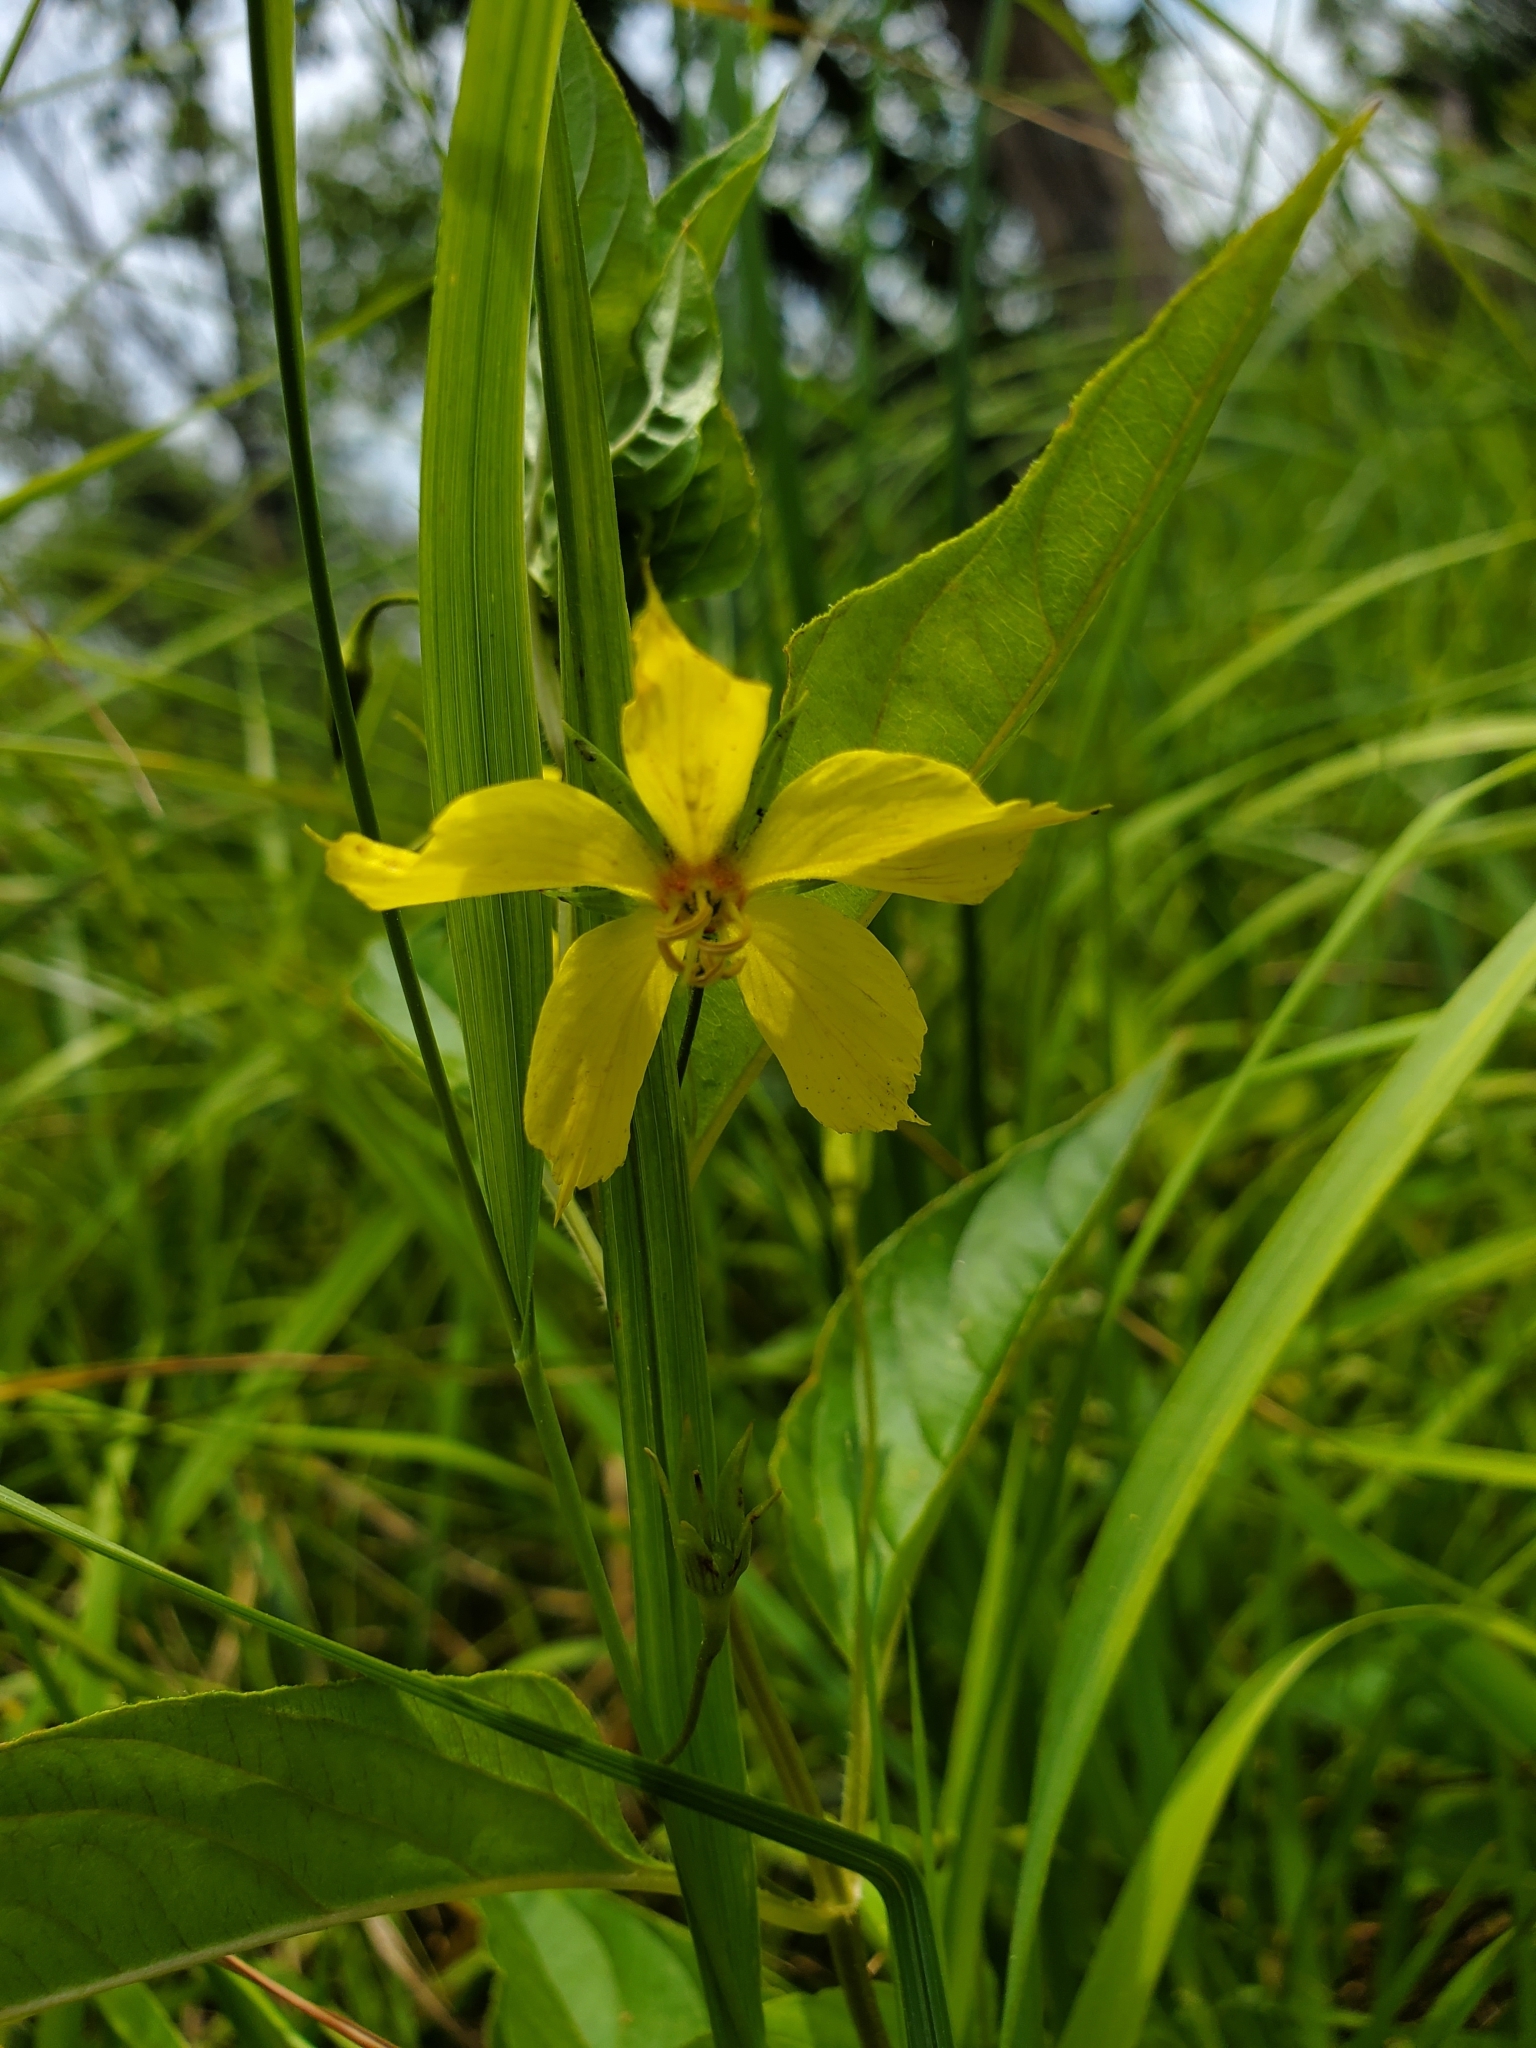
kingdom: Plantae
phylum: Tracheophyta
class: Magnoliopsida
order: Ericales
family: Primulaceae
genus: Lysimachia
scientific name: Lysimachia ciliata
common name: Fringed loosestrife
